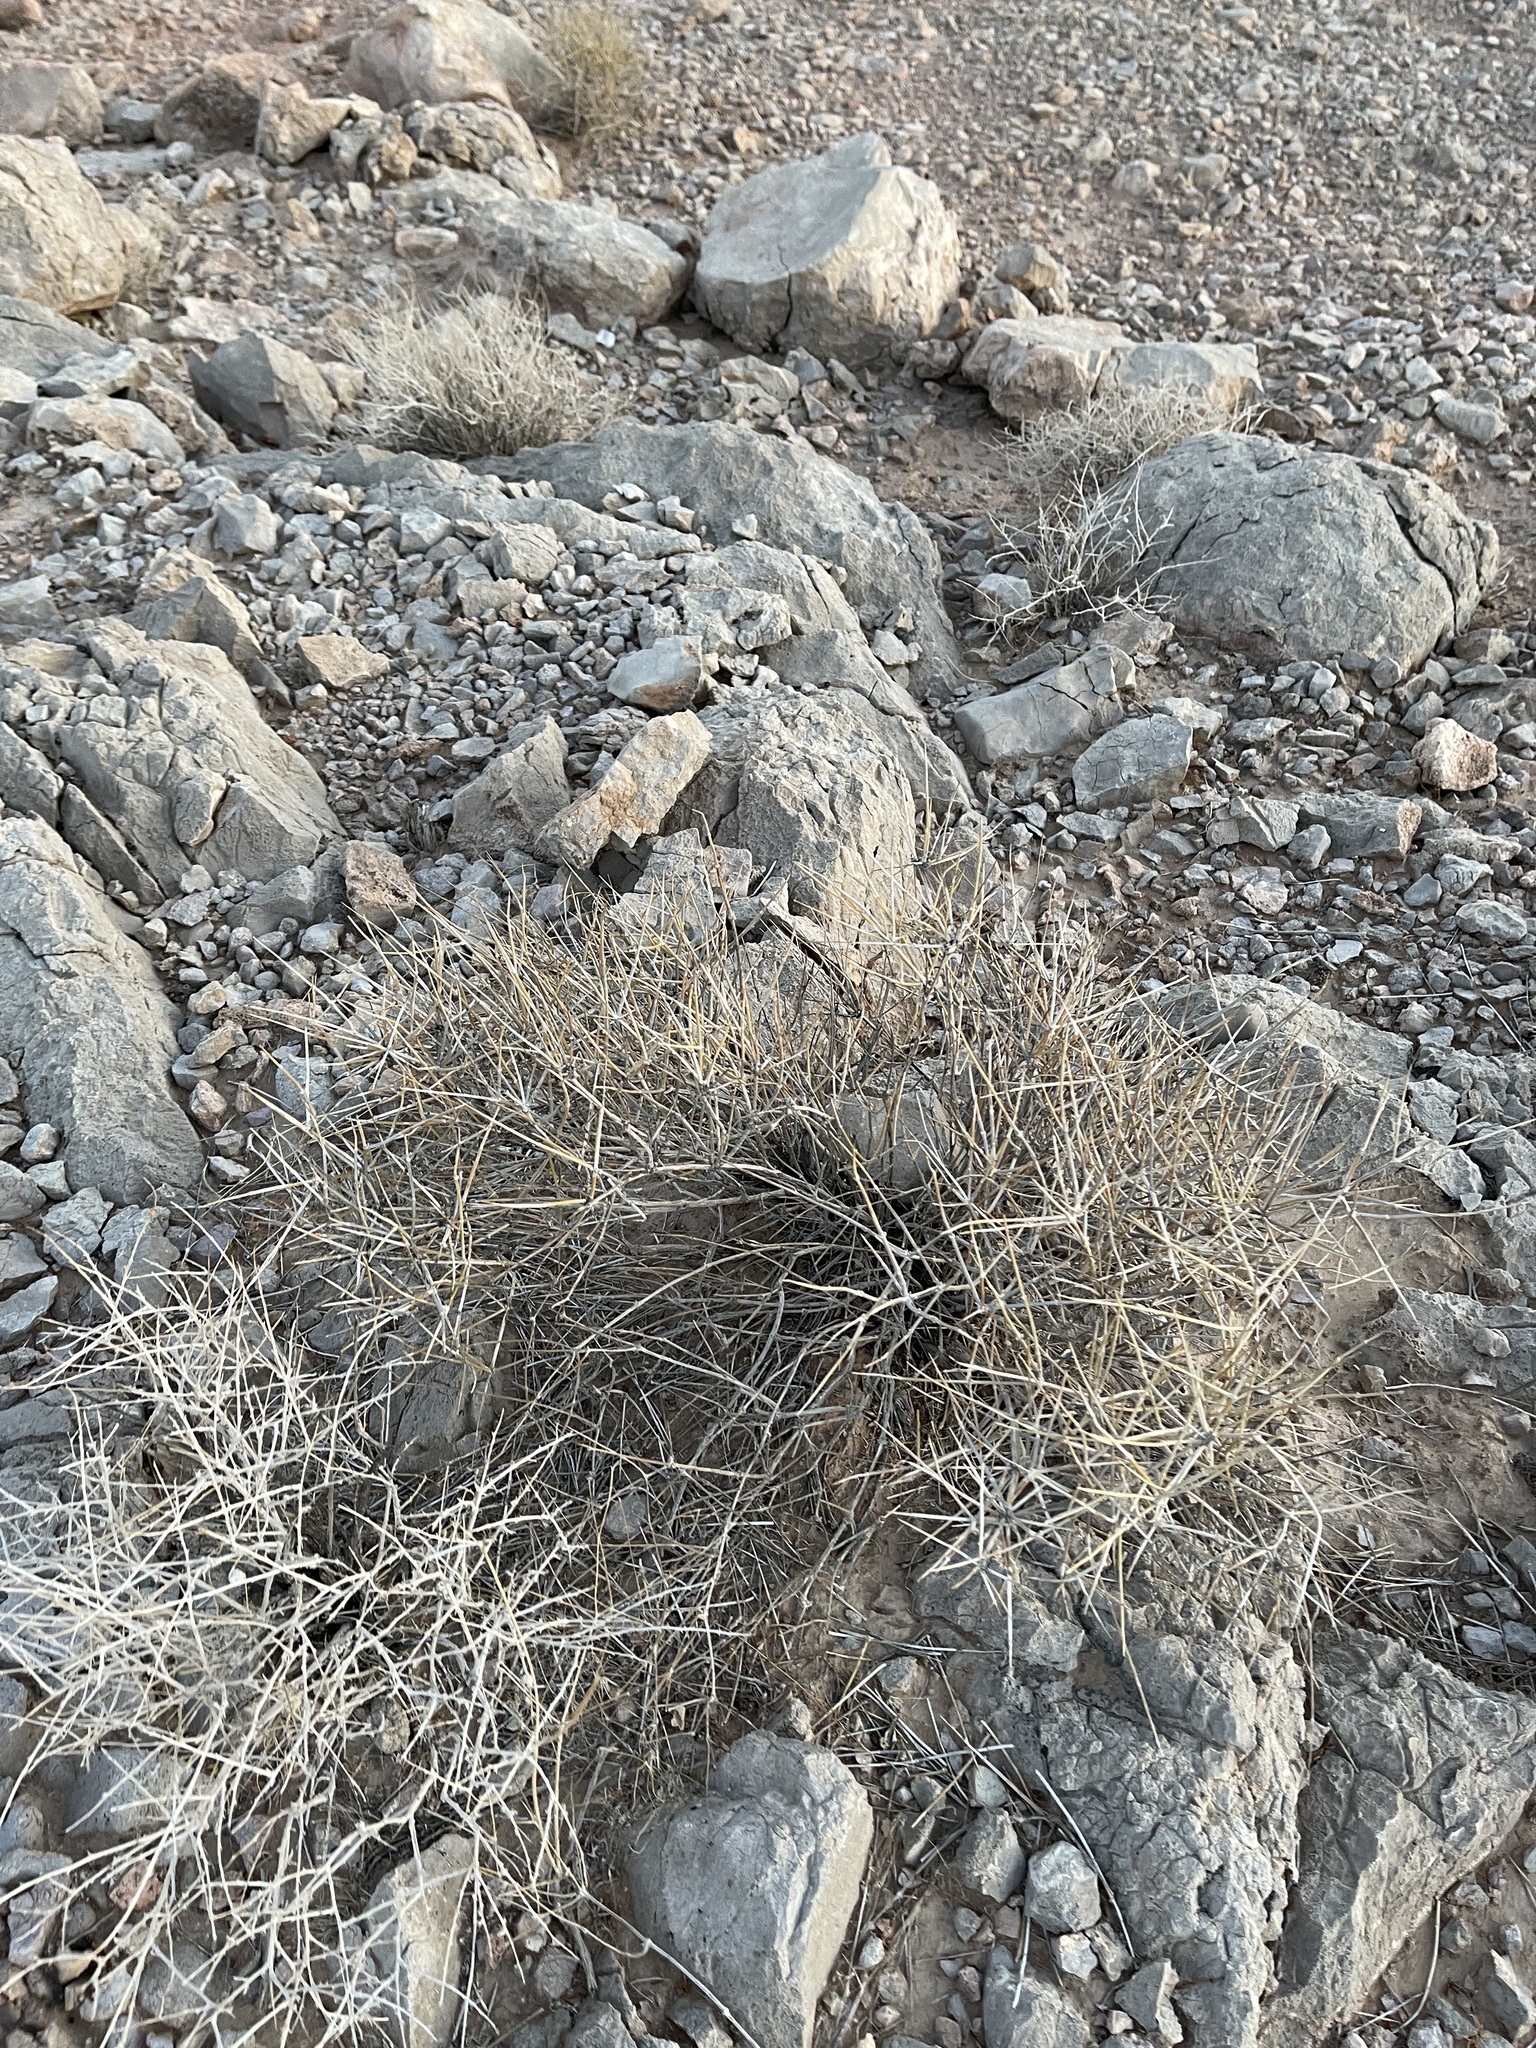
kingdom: Plantae
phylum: Tracheophyta
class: Gnetopsida
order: Ephedrales
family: Ephedraceae
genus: Ephedra
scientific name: Ephedra nevadensis
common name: Gray ephedra
